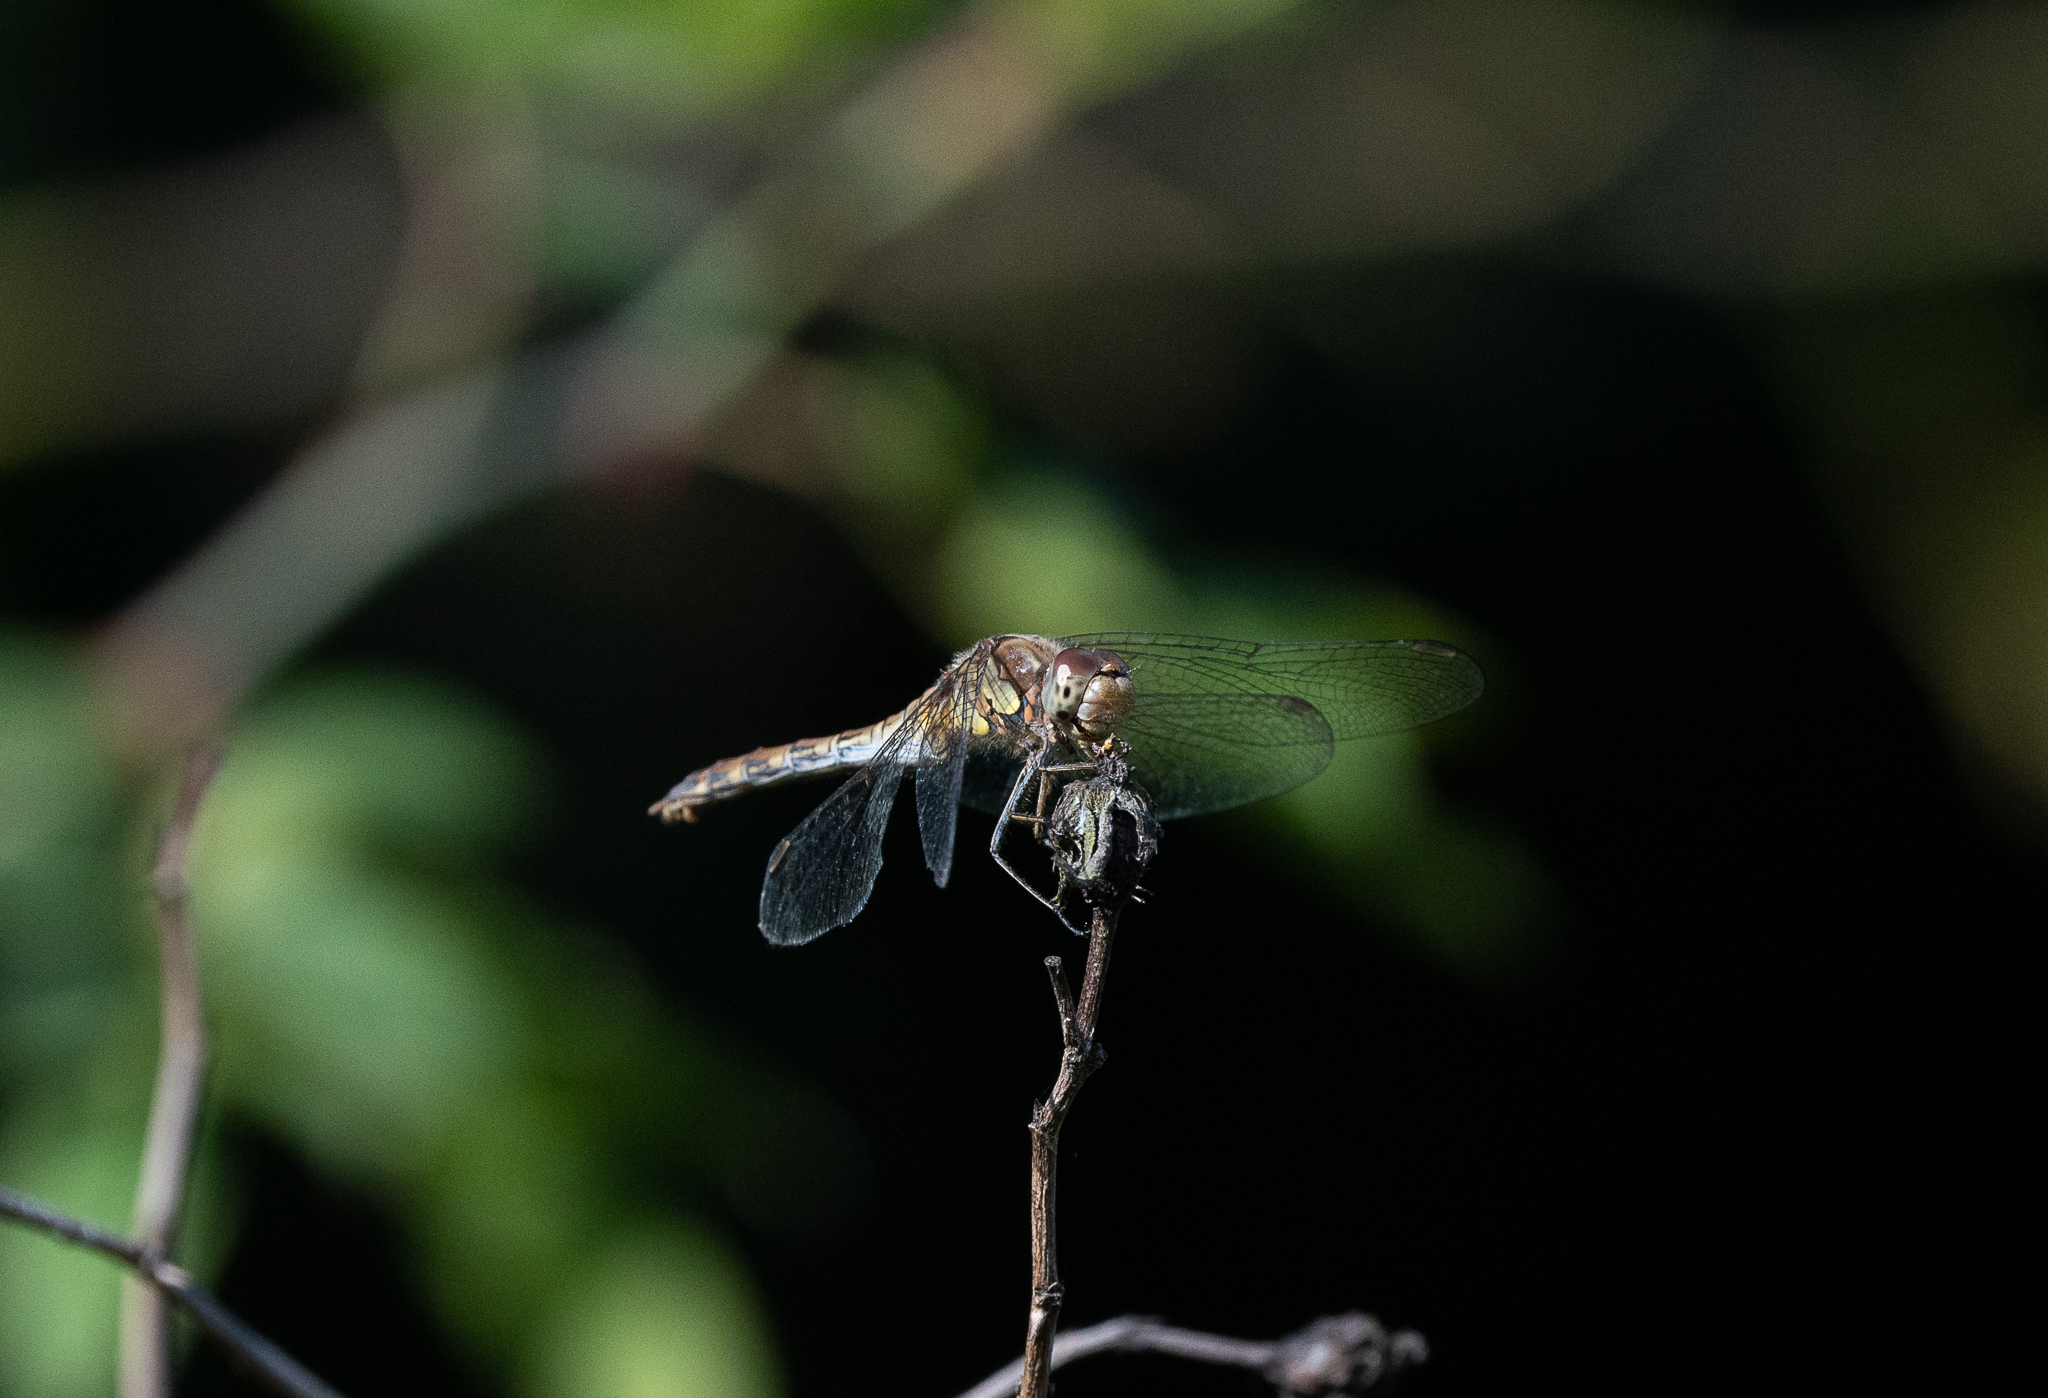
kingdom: Animalia
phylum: Arthropoda
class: Insecta
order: Odonata
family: Libellulidae
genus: Sympetrum
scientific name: Sympetrum striolatum
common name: Common darter
